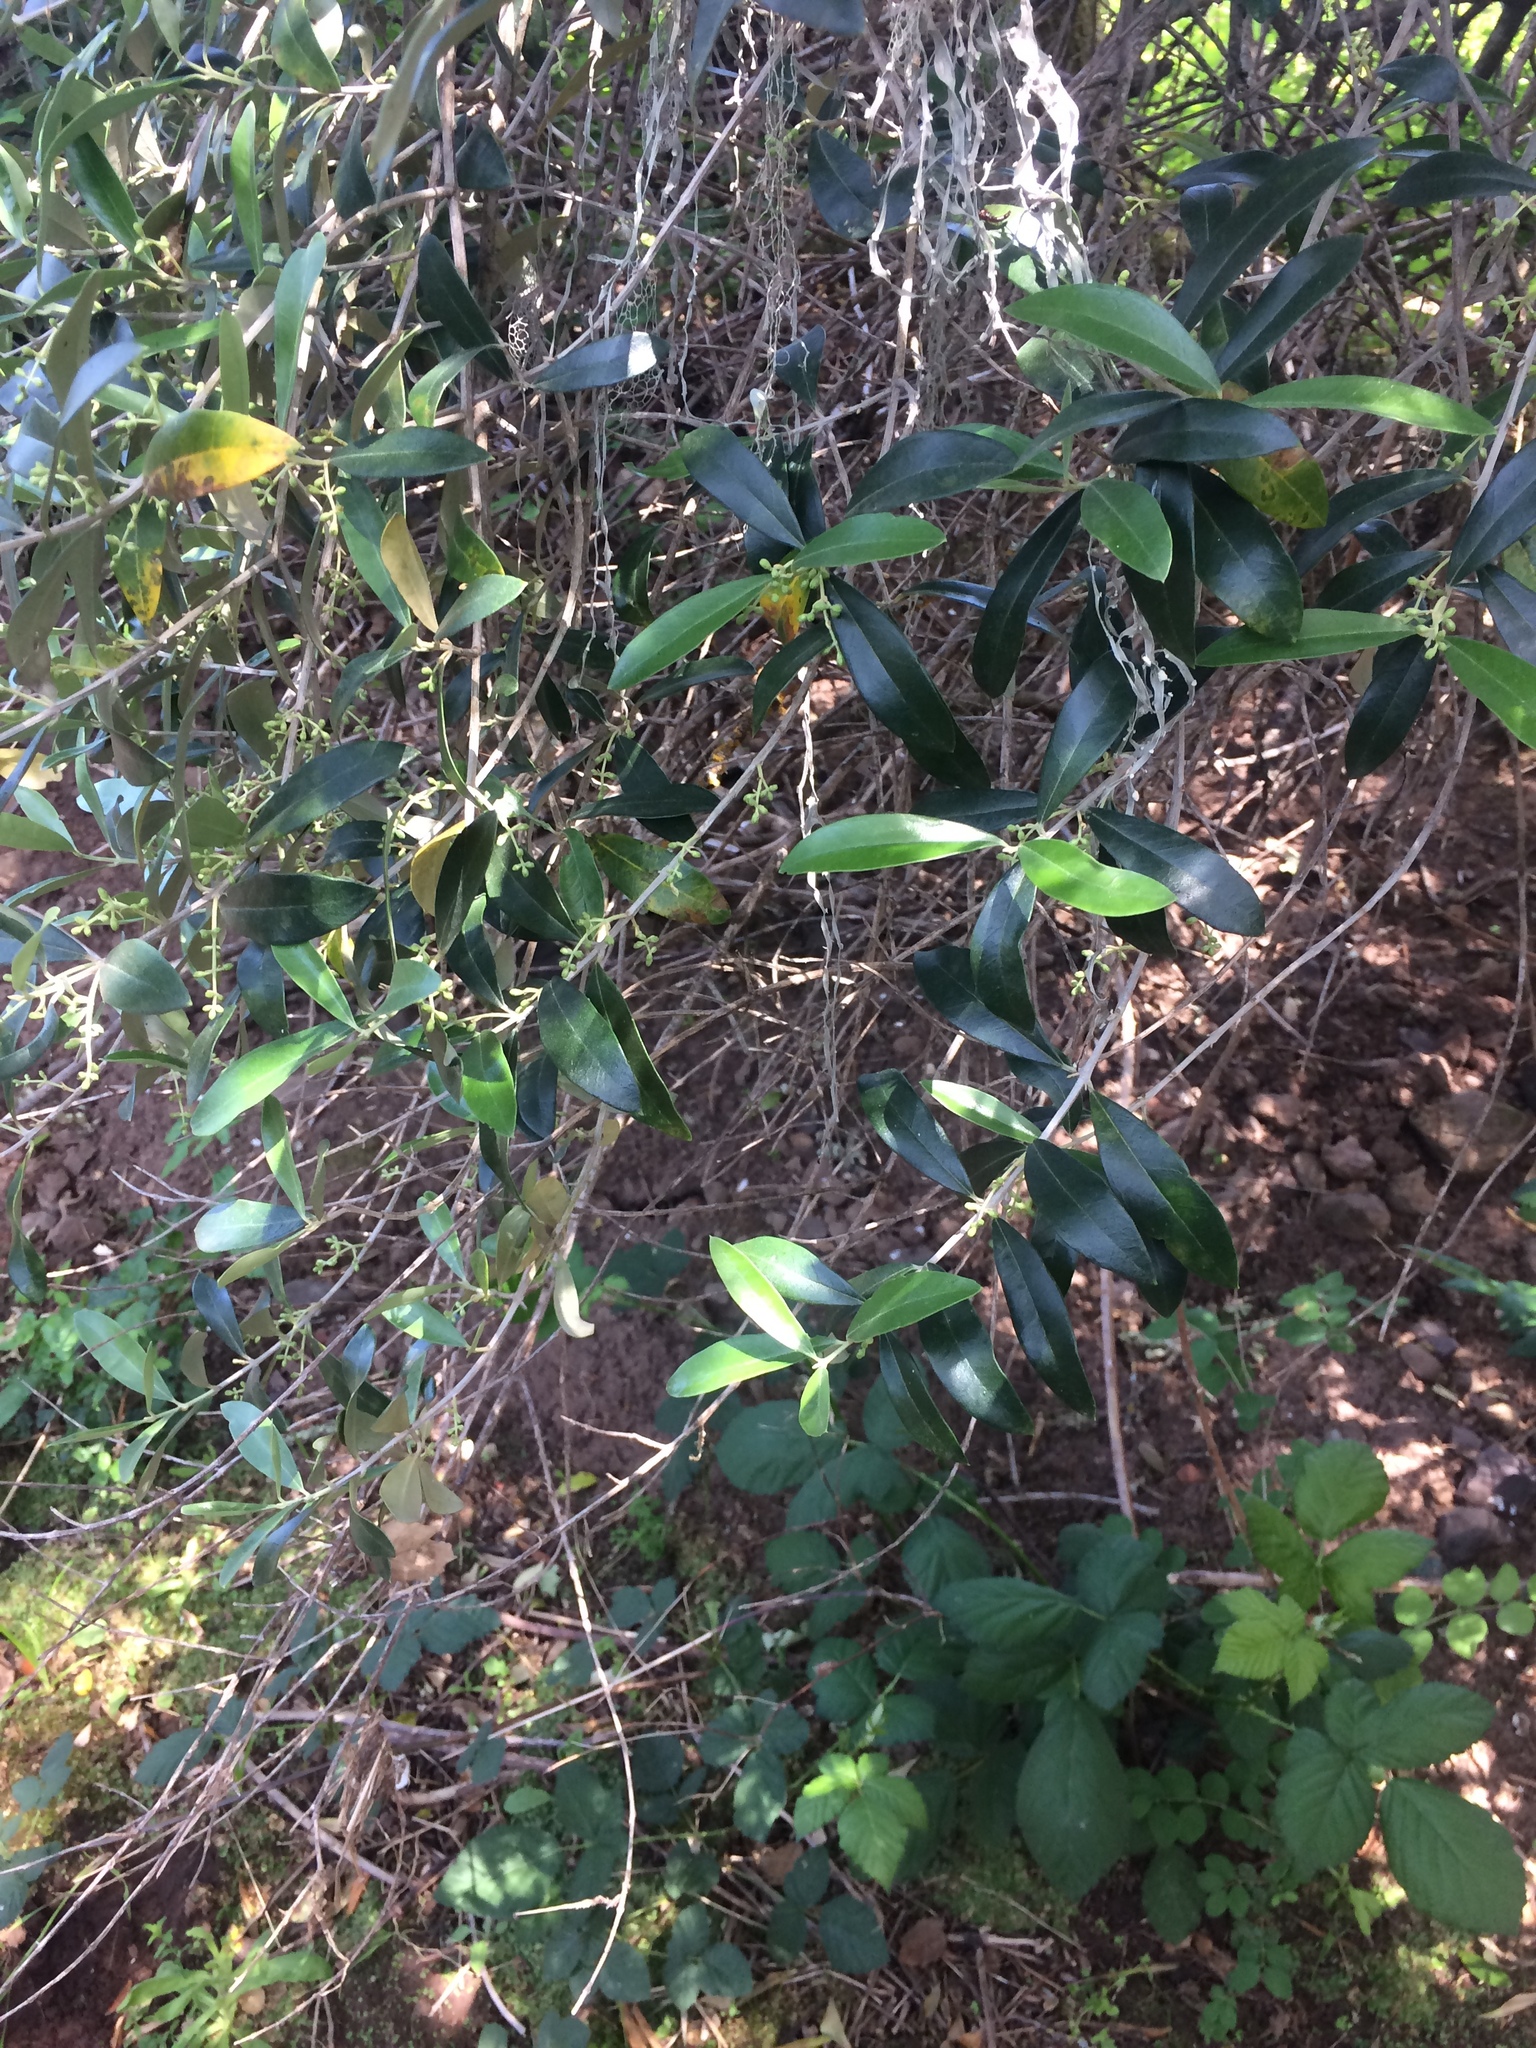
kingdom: Plantae
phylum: Tracheophyta
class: Magnoliopsida
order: Lamiales
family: Oleaceae
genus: Olea
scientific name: Olea europaea
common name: Olive
